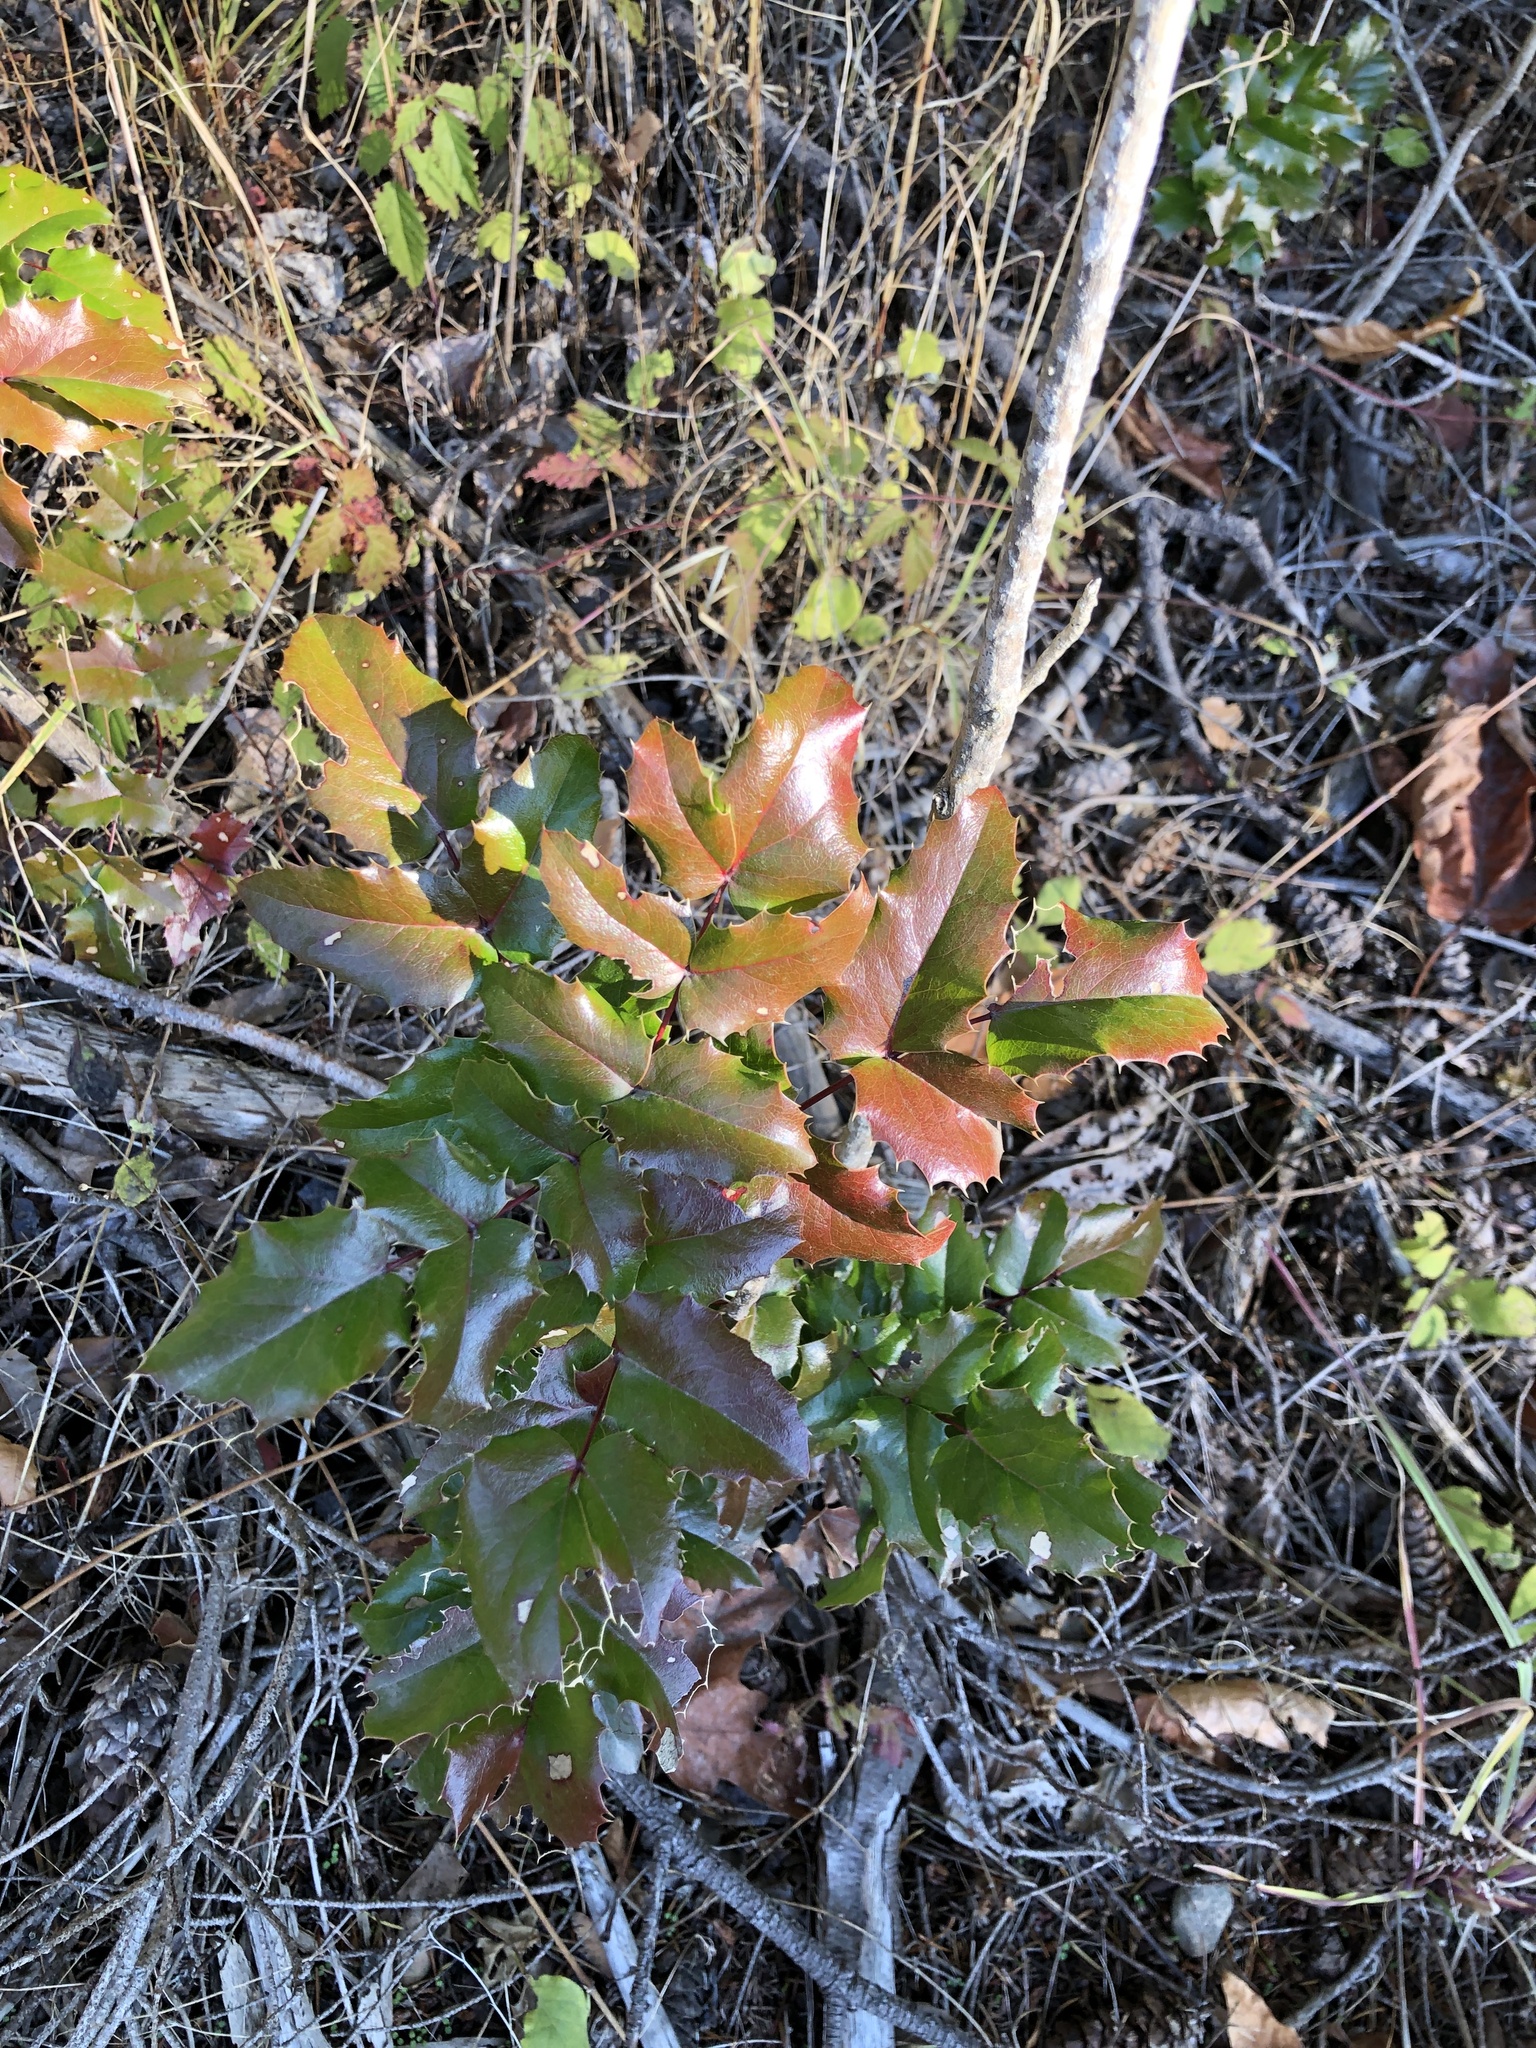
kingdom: Plantae
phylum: Tracheophyta
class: Magnoliopsida
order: Ranunculales
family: Berberidaceae
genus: Mahonia
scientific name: Mahonia aquifolium
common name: Oregon-grape
